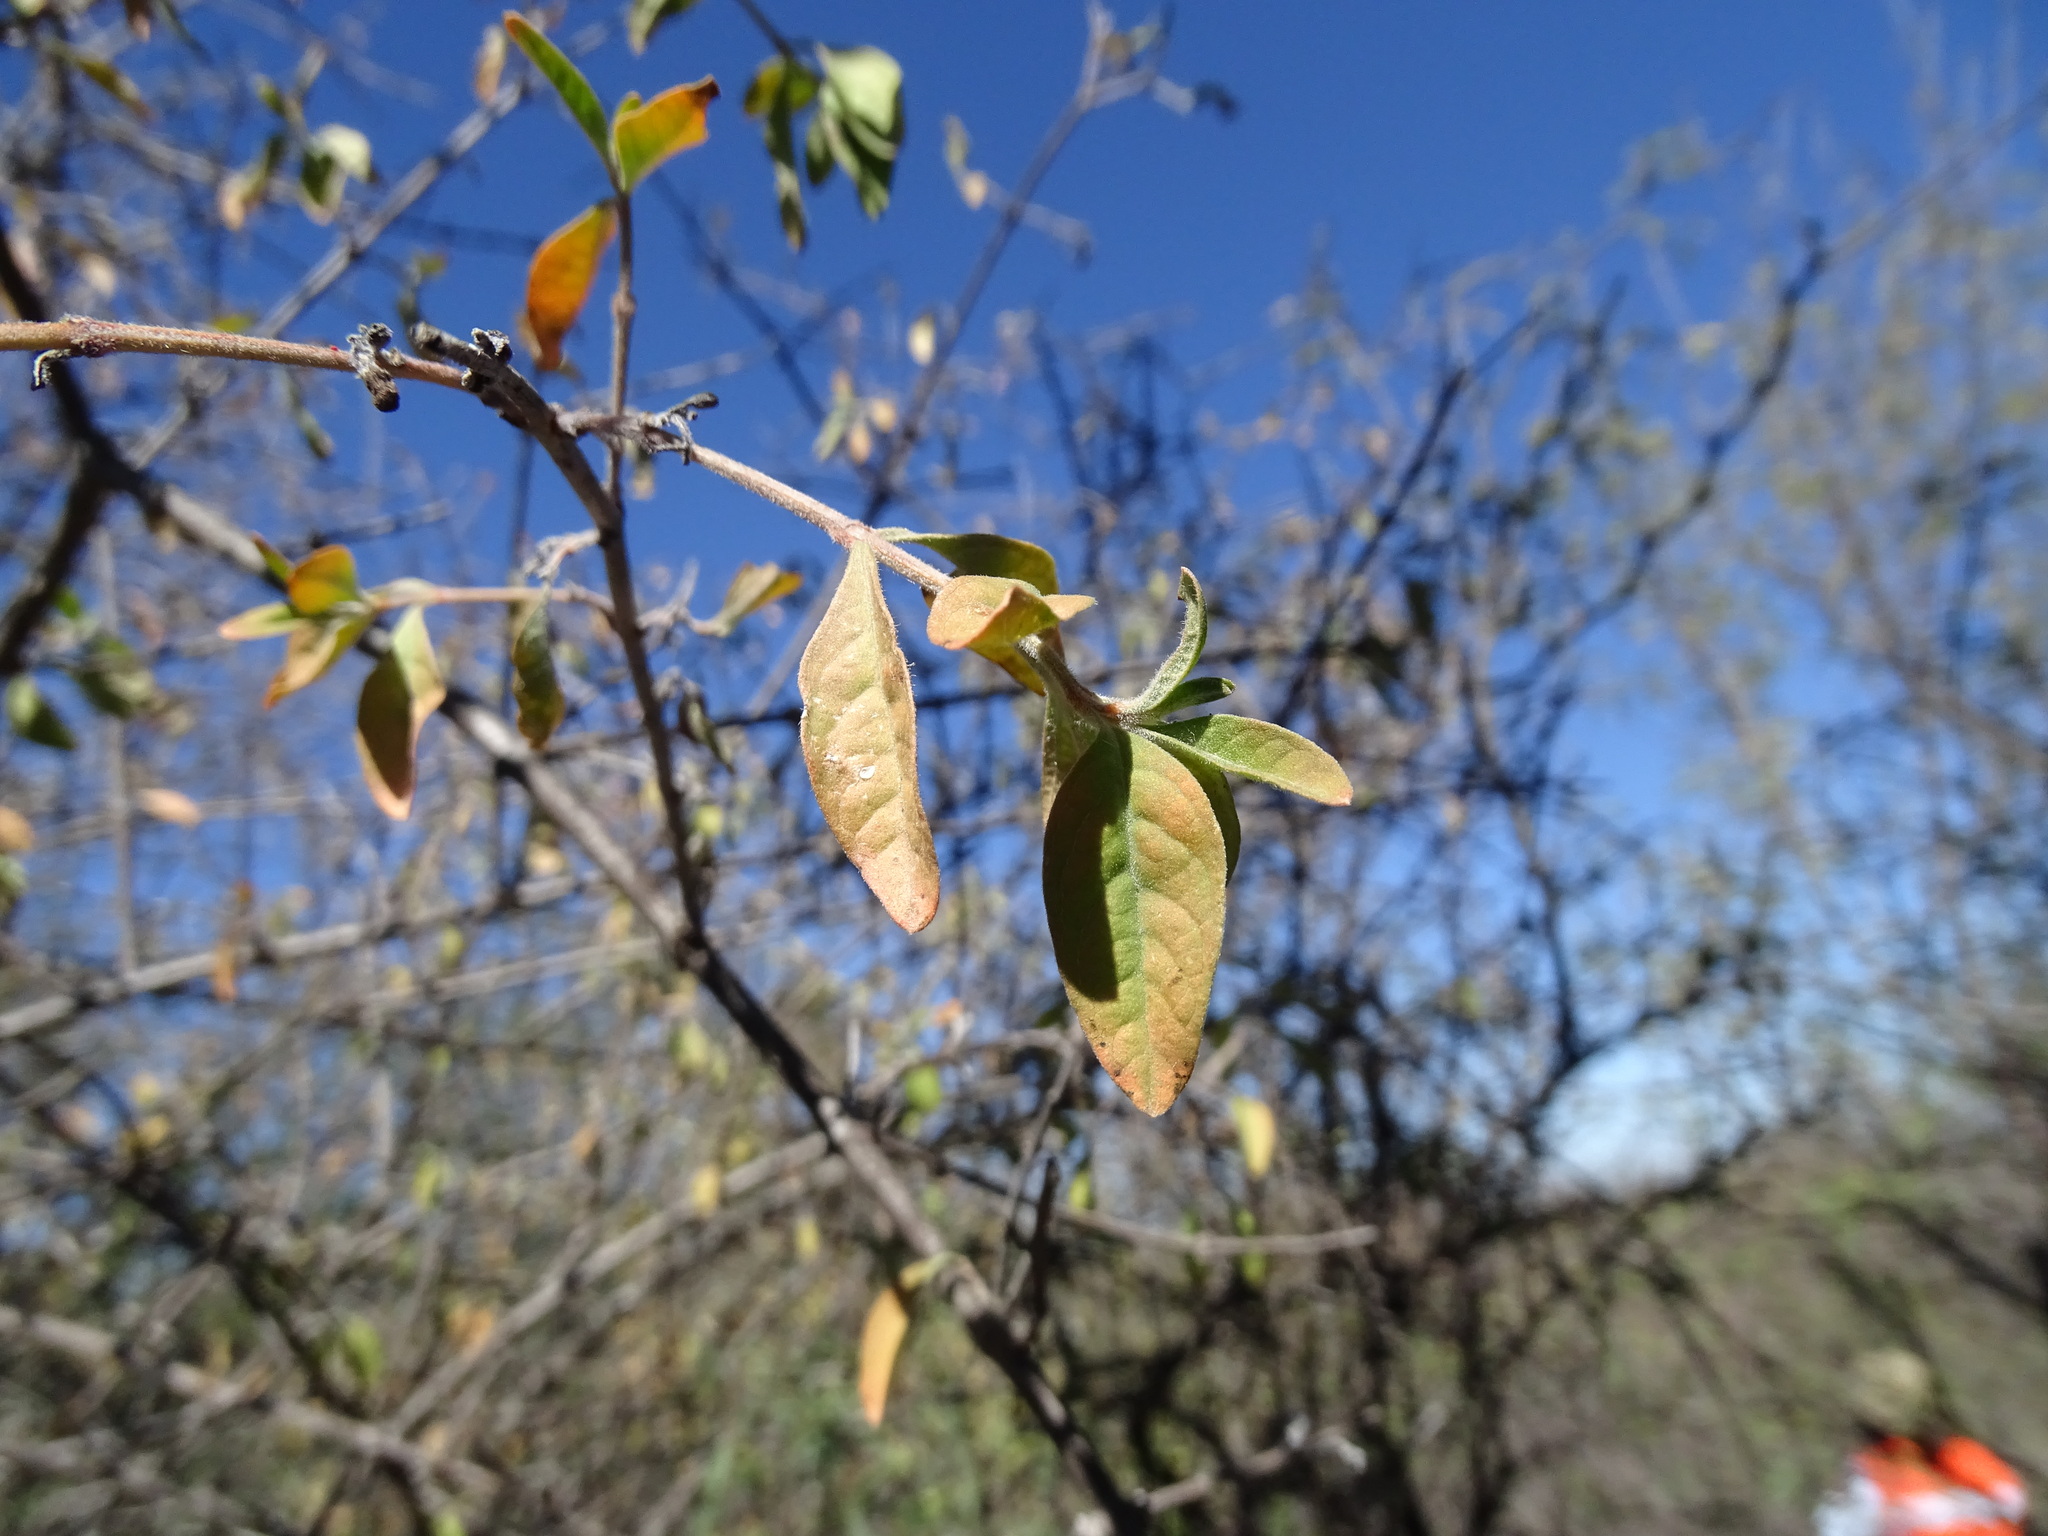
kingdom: Plantae
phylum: Tracheophyta
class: Magnoliopsida
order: Lamiales
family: Verbenaceae
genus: Citharexylum
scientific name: Citharexylum racemosum
